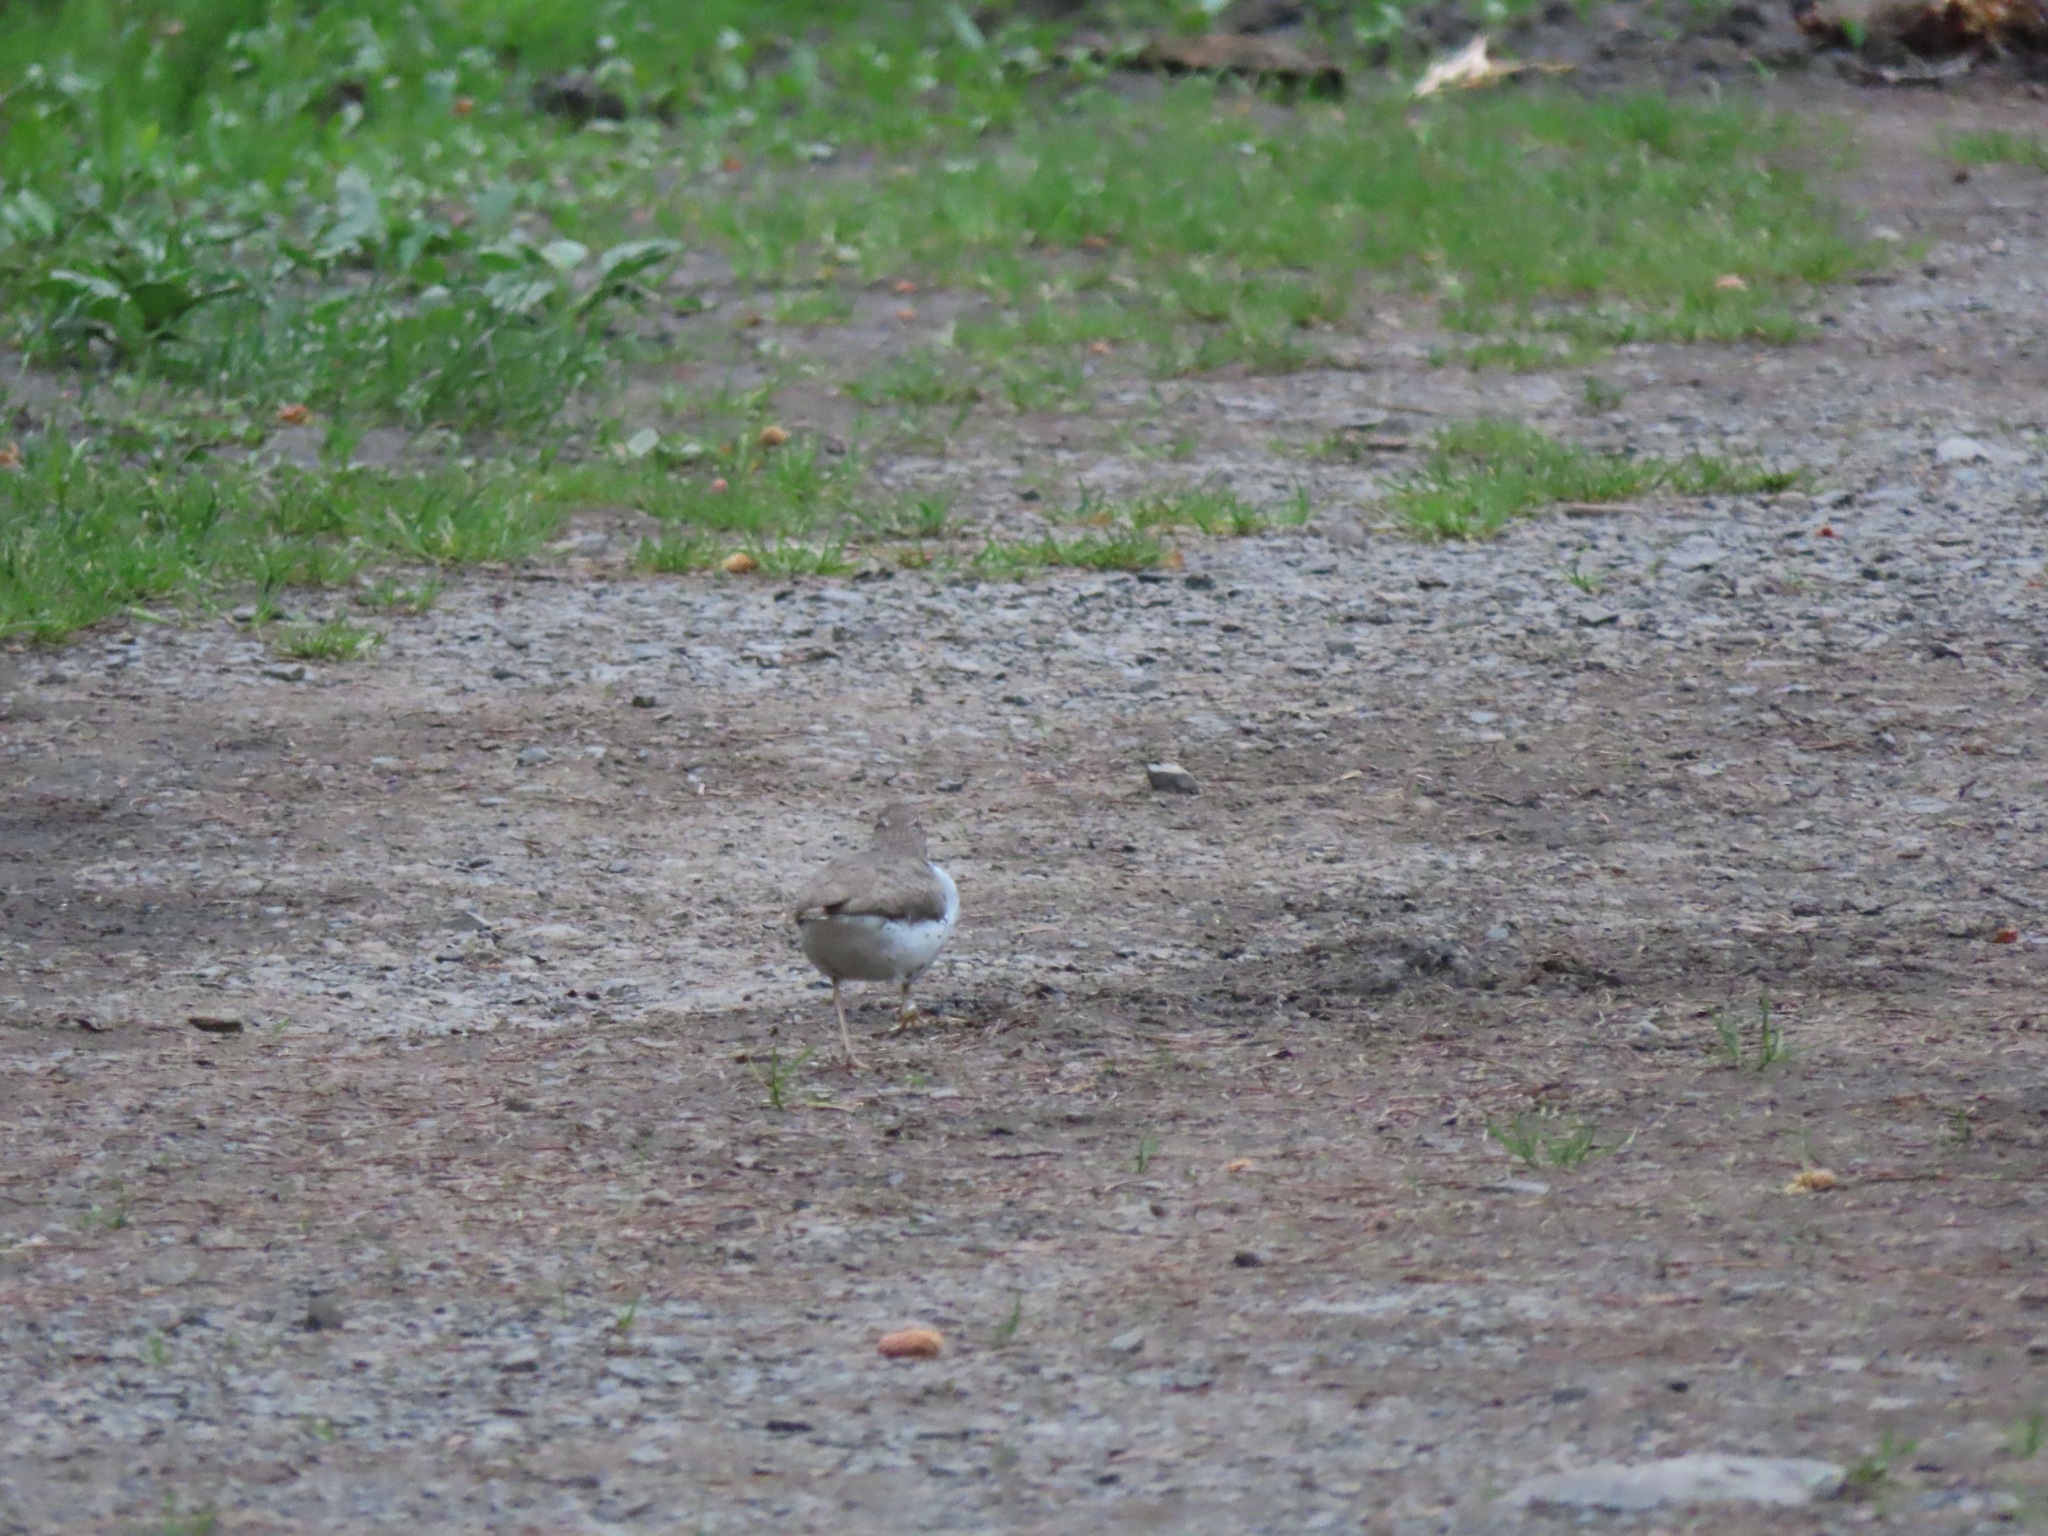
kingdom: Animalia
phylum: Chordata
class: Aves
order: Charadriiformes
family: Scolopacidae
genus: Actitis
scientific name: Actitis macularius
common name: Spotted sandpiper
